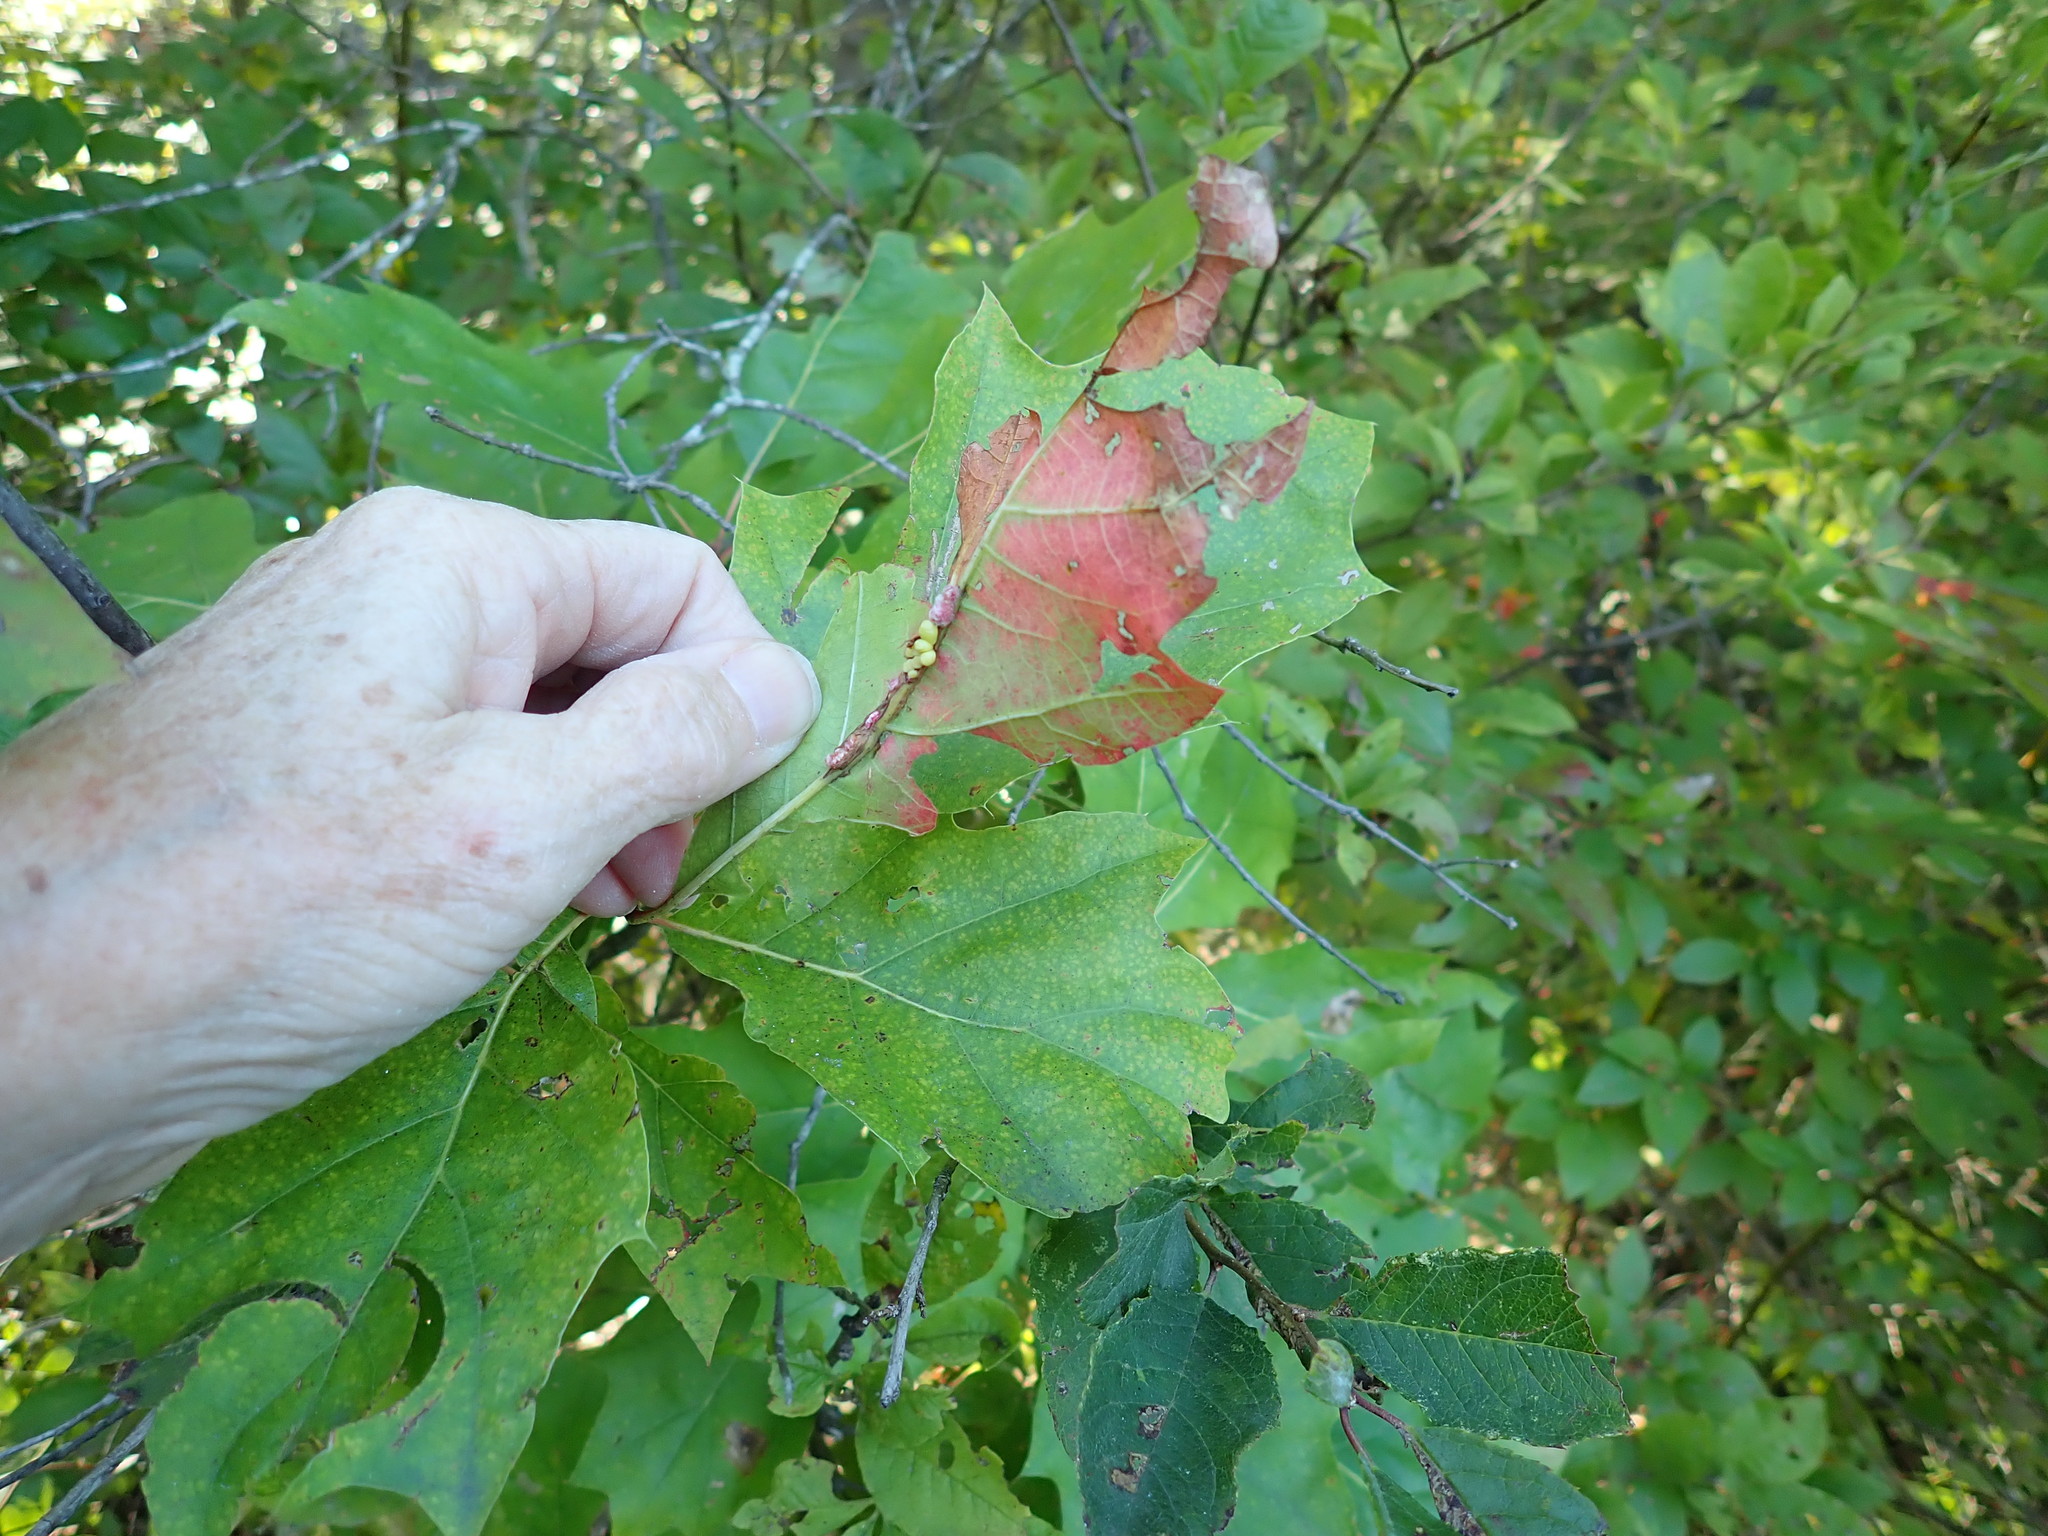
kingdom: Animalia
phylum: Arthropoda
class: Insecta
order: Hymenoptera
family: Cynipidae
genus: Kokkocynips
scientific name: Kokkocynips decidua
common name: Oak wheat gall
